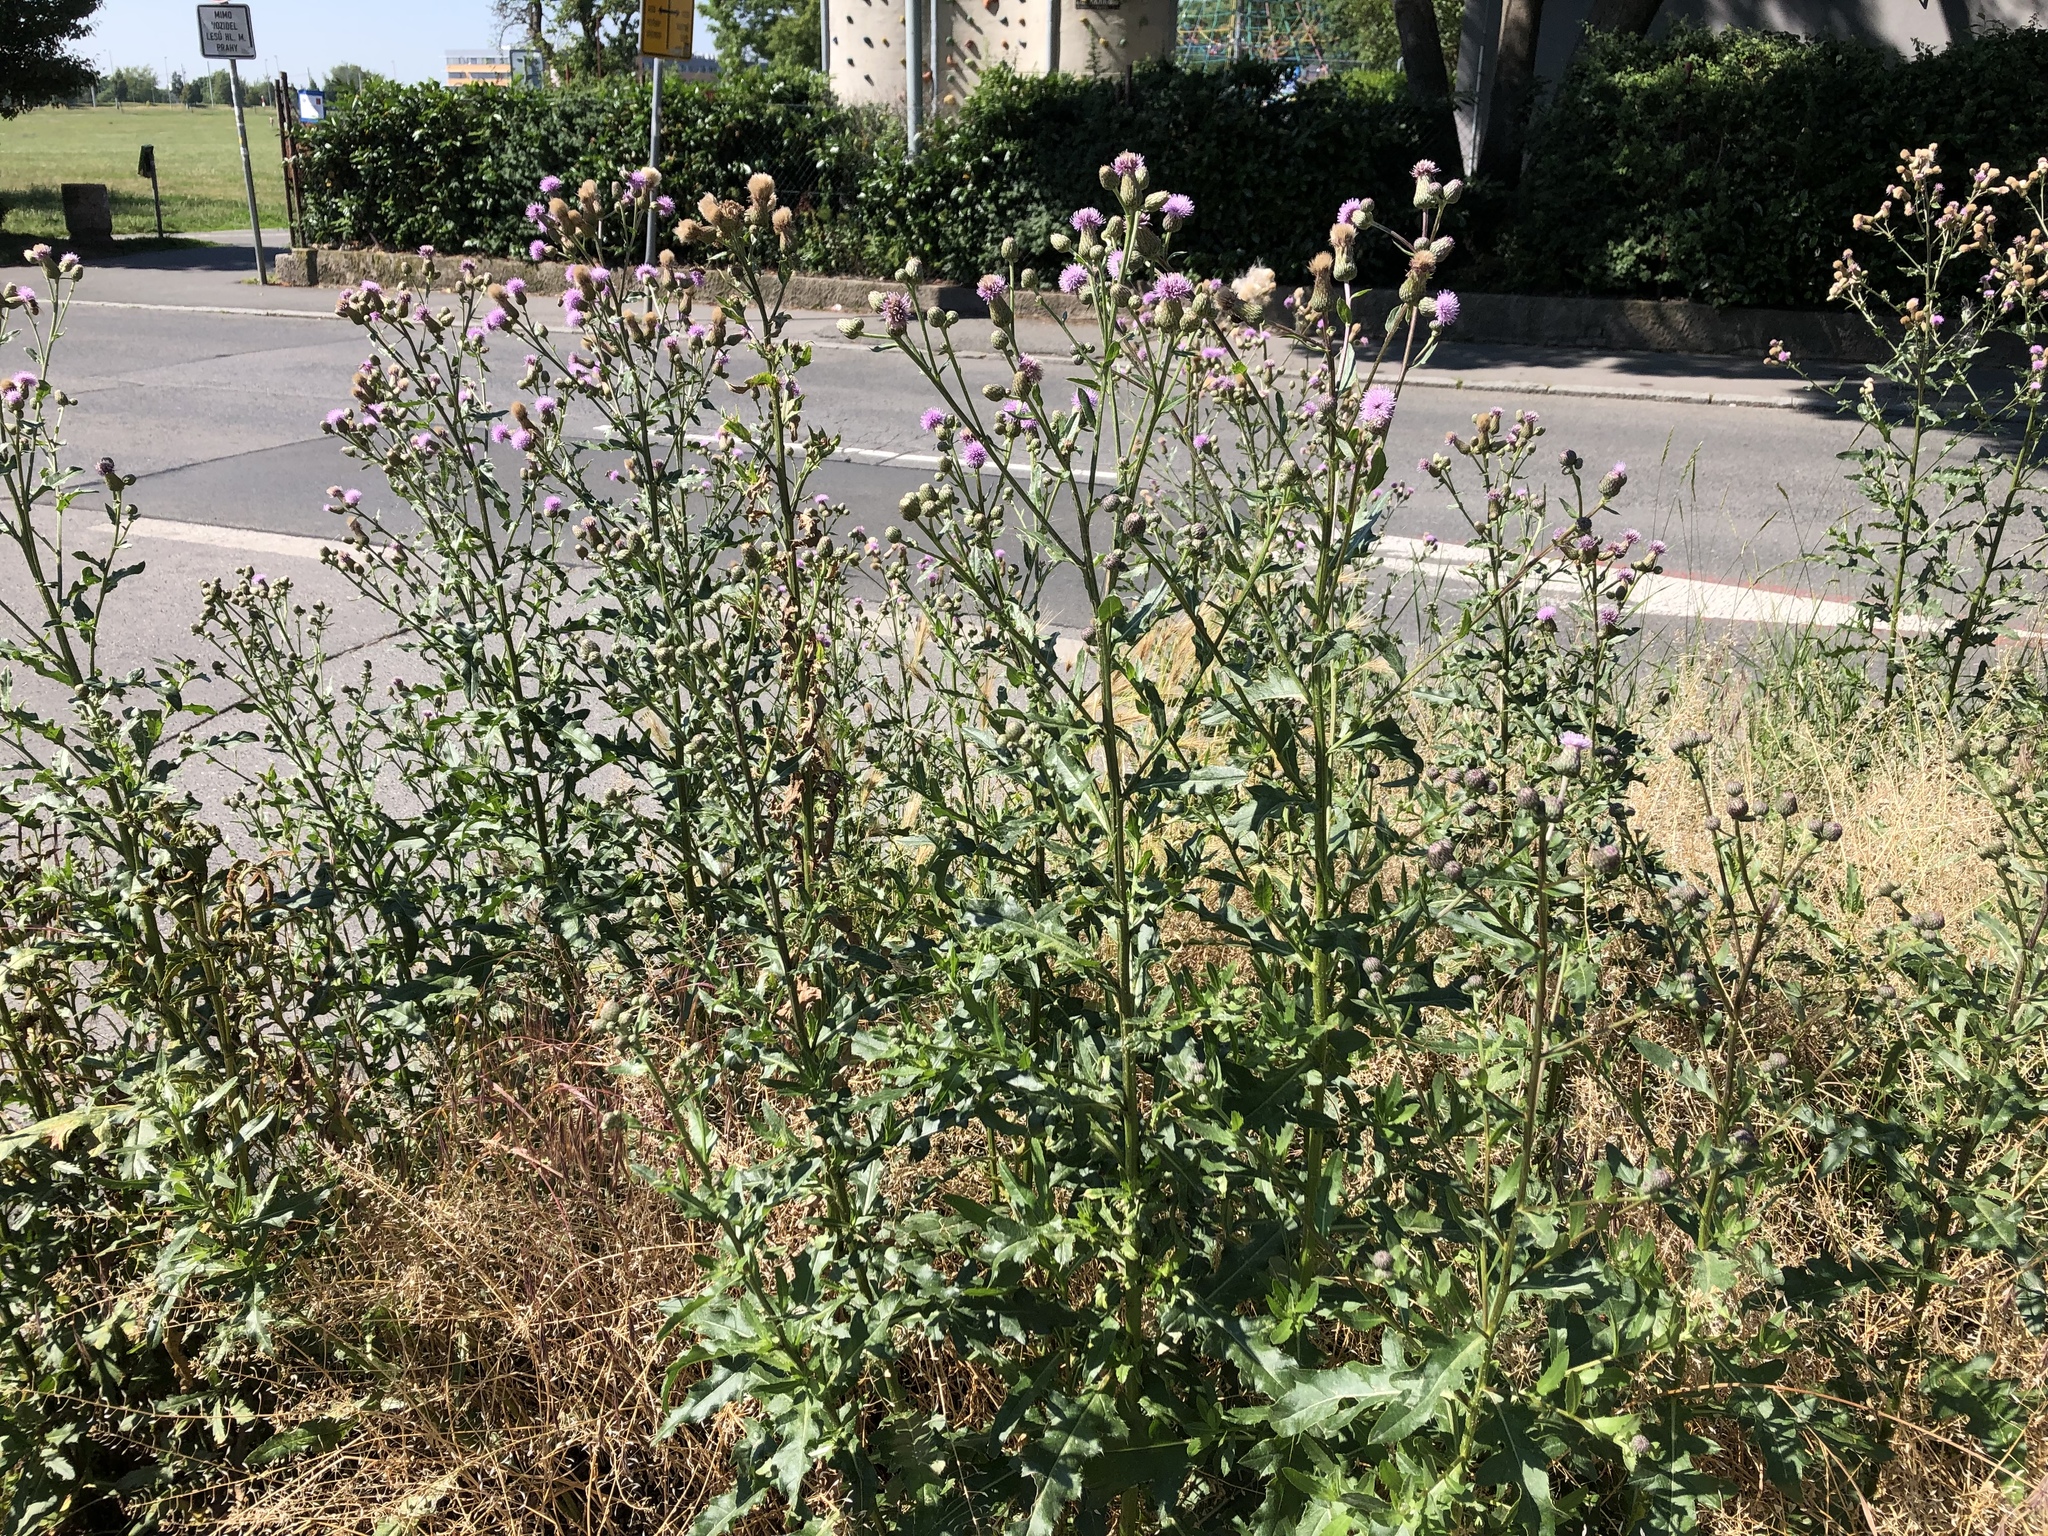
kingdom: Plantae
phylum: Tracheophyta
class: Magnoliopsida
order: Asterales
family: Asteraceae
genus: Cirsium
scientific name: Cirsium arvense
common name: Creeping thistle
